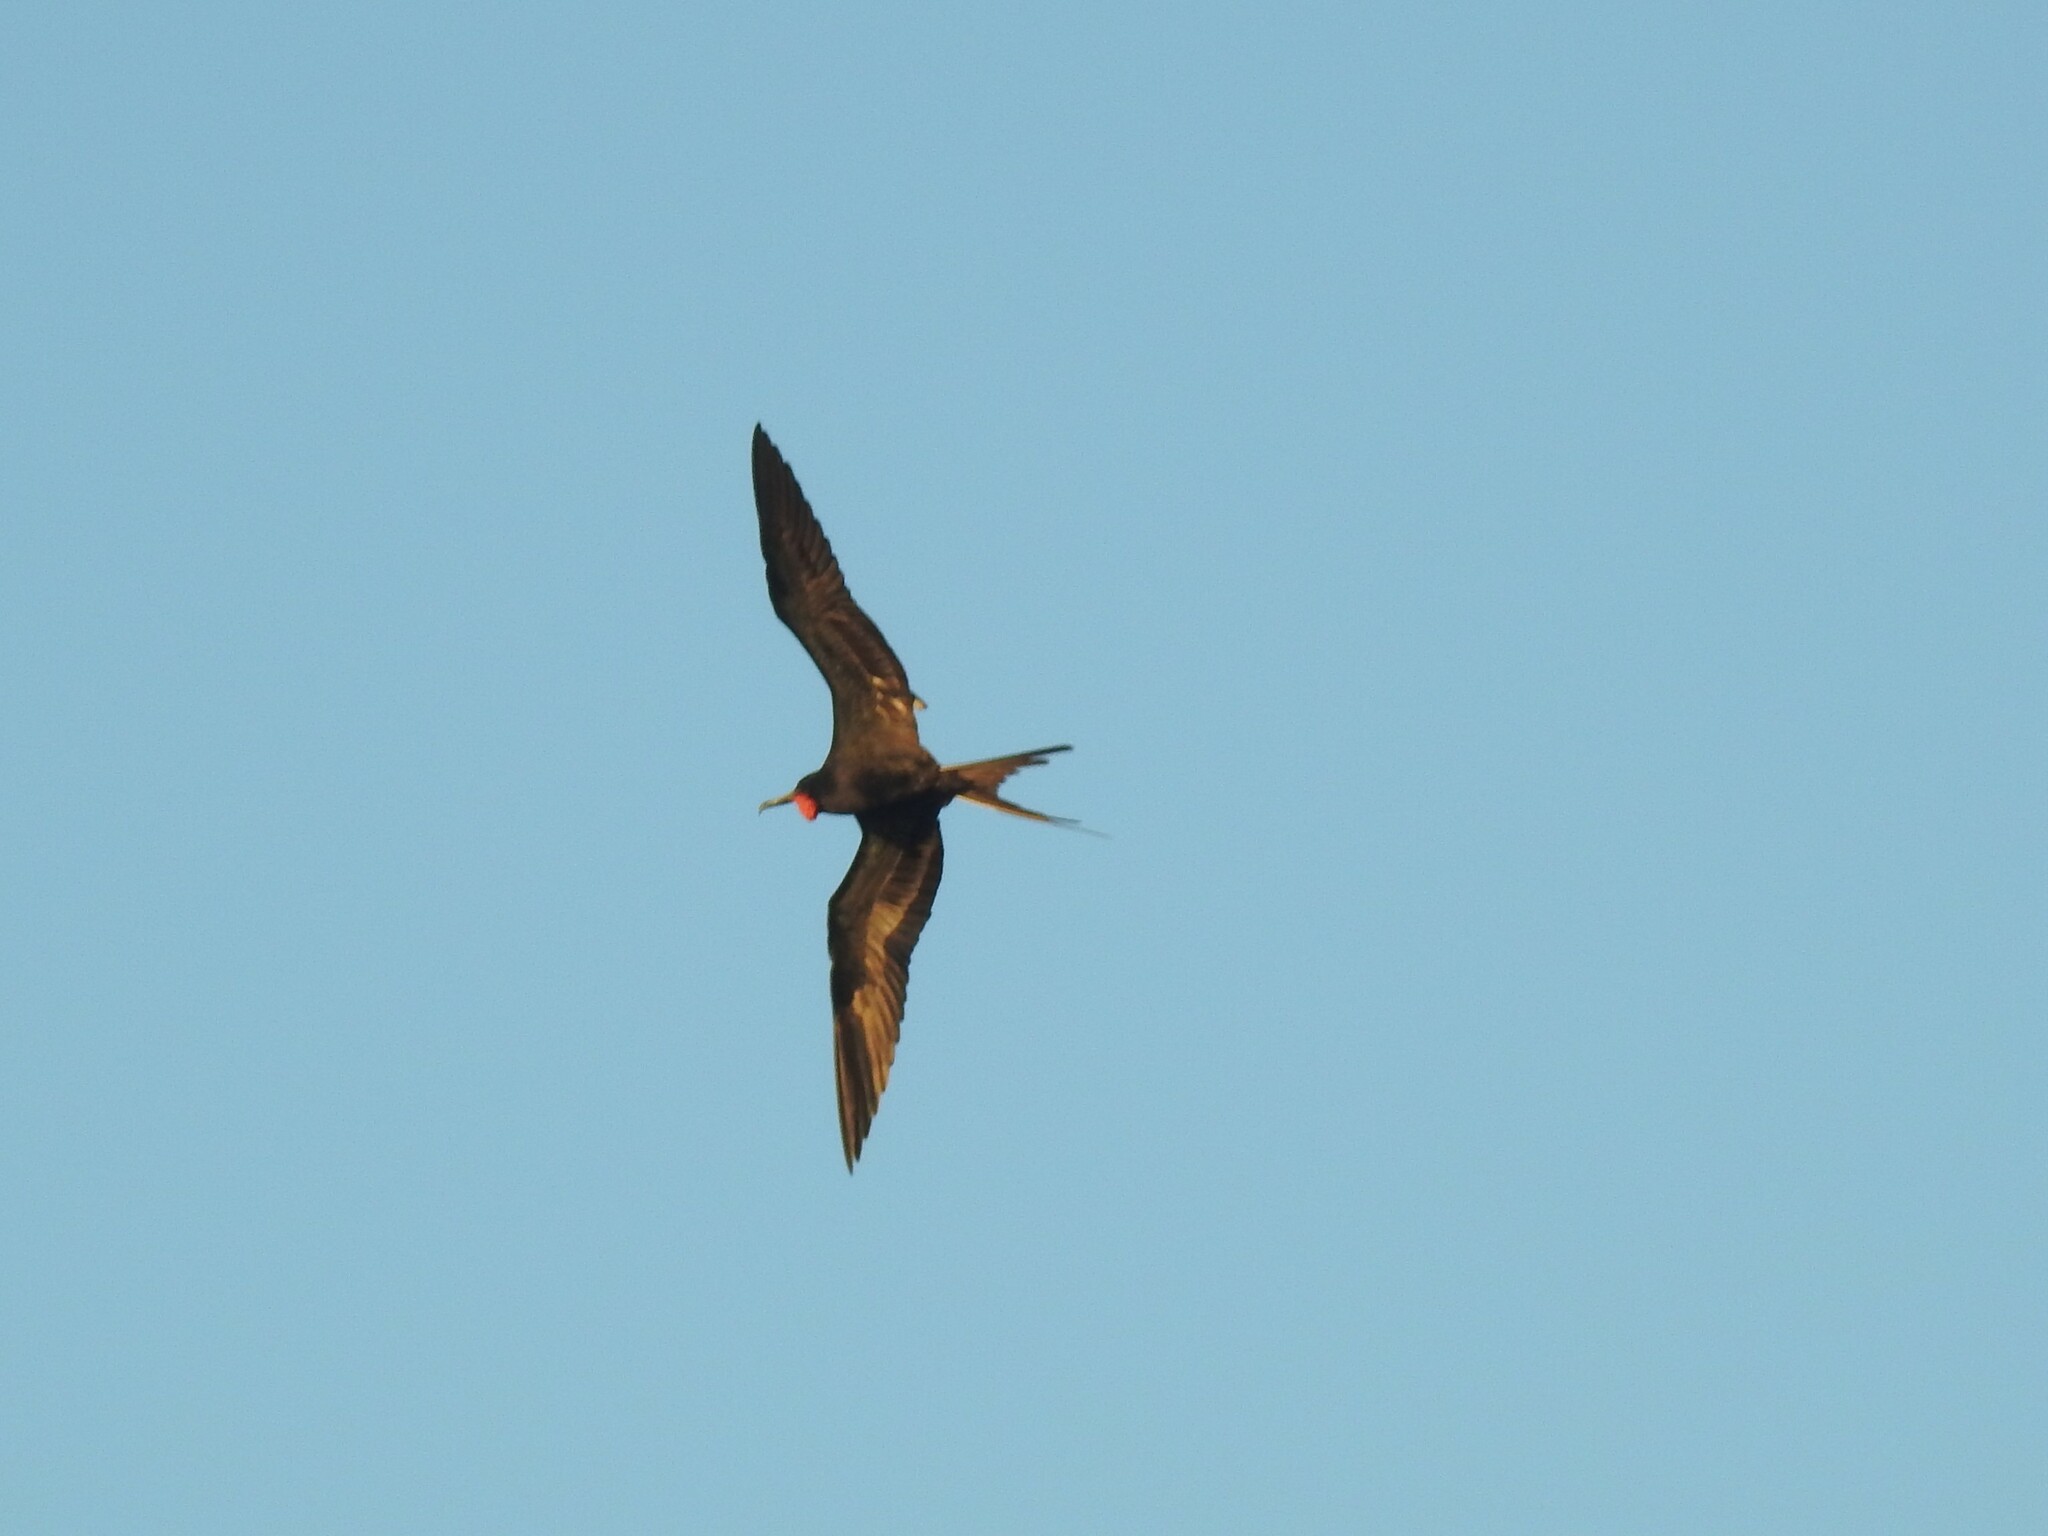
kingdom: Animalia
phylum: Chordata
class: Aves
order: Suliformes
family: Fregatidae
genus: Fregata
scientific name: Fregata magnificens
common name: Magnificent frigatebird
